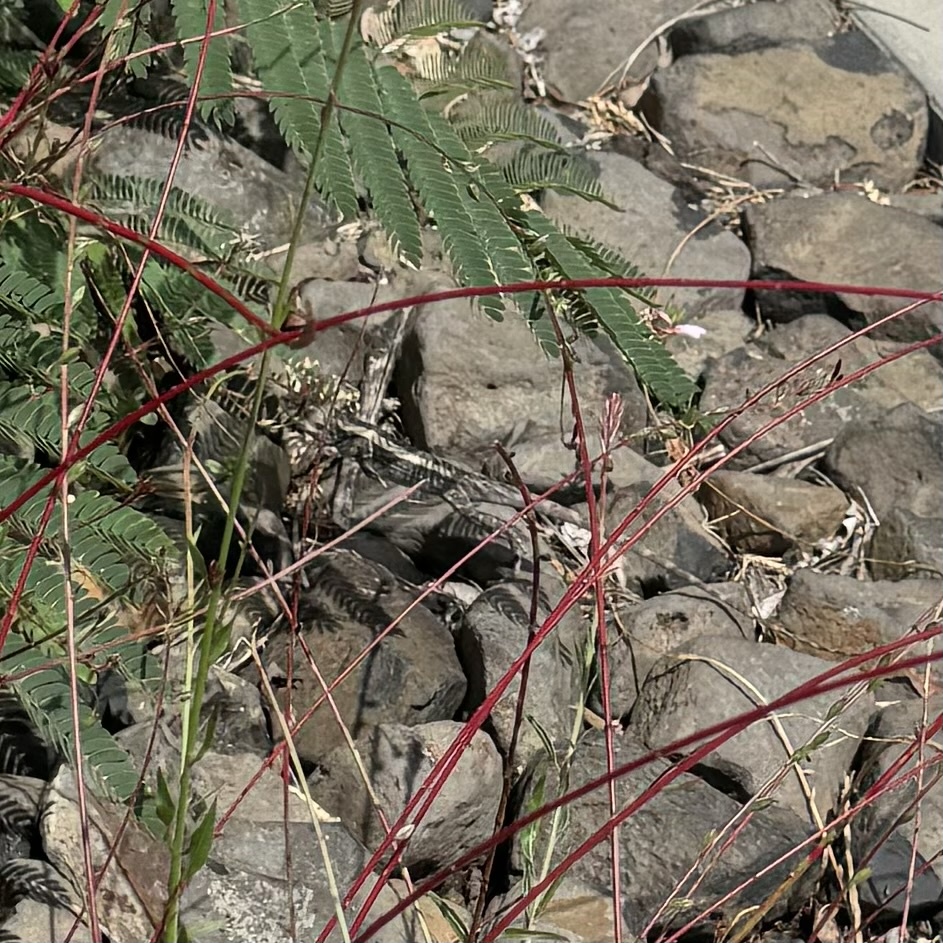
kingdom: Animalia
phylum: Chordata
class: Squamata
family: Agamidae
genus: Amphibolurus
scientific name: Amphibolurus muricatus
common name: Jacky lizard
